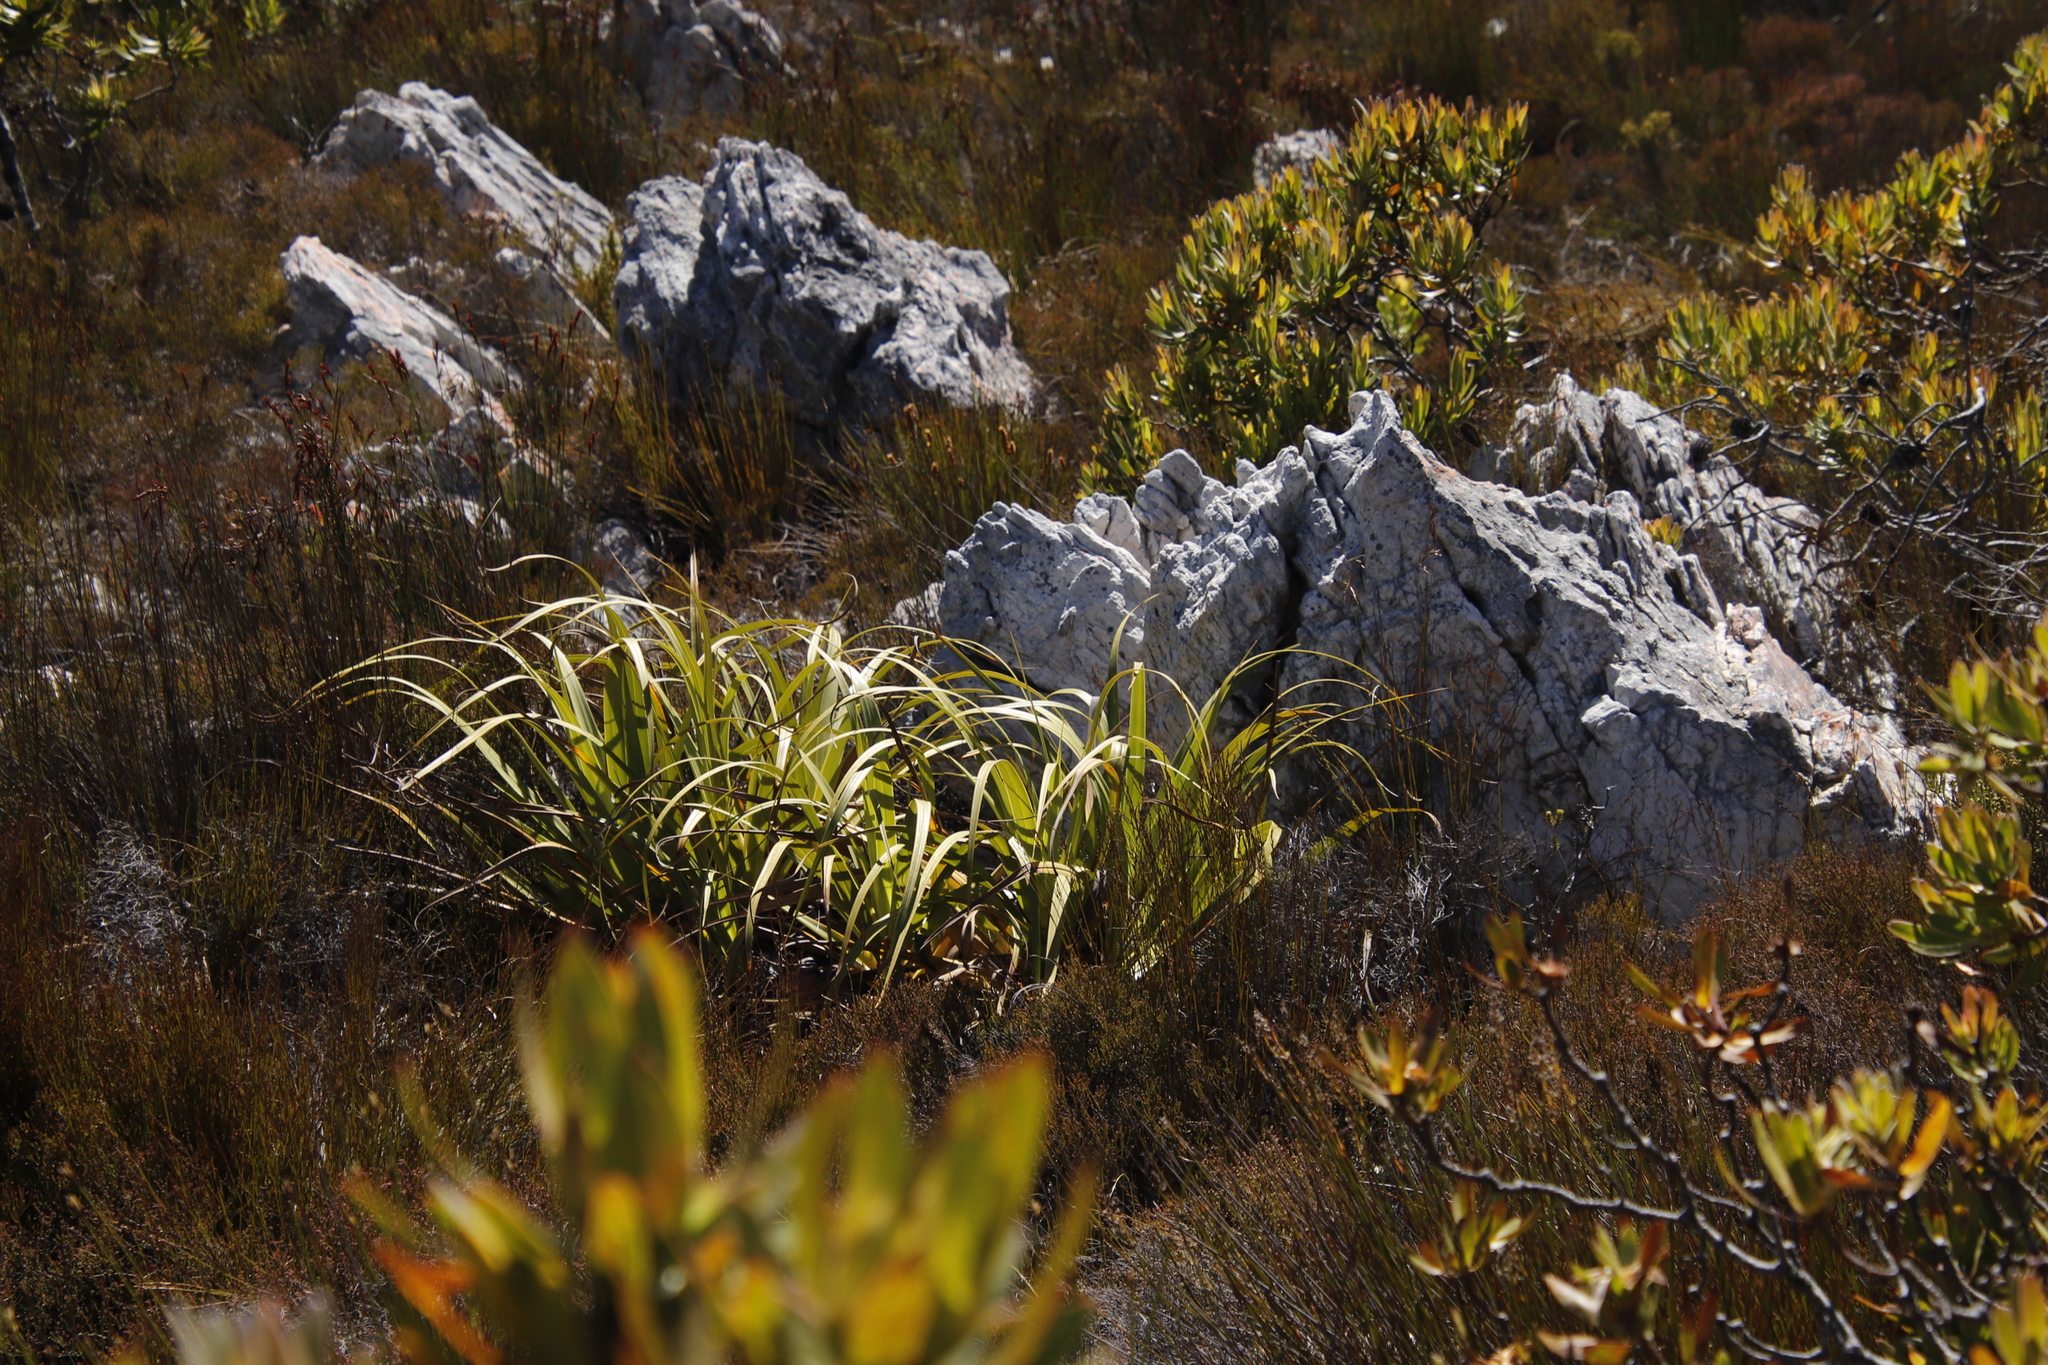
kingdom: Plantae
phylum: Tracheophyta
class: Liliopsida
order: Poales
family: Cyperaceae
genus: Tetraria
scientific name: Tetraria thermalis
